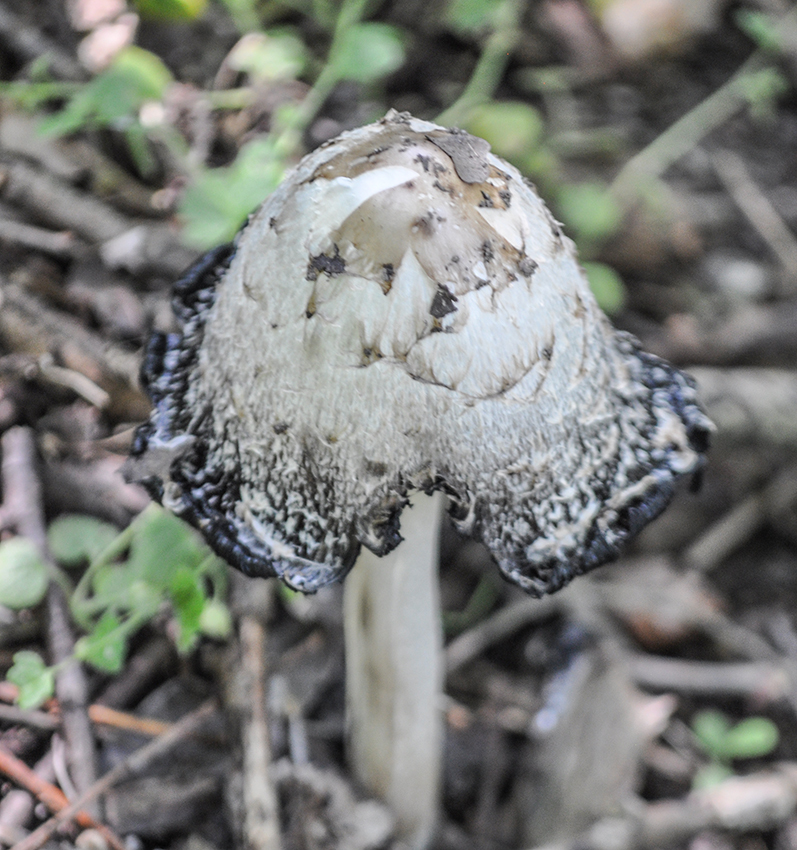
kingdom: Fungi
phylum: Basidiomycota
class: Agaricomycetes
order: Agaricales
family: Agaricaceae
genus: Coprinus
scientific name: Coprinus comatus
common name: Lawyer's wig
